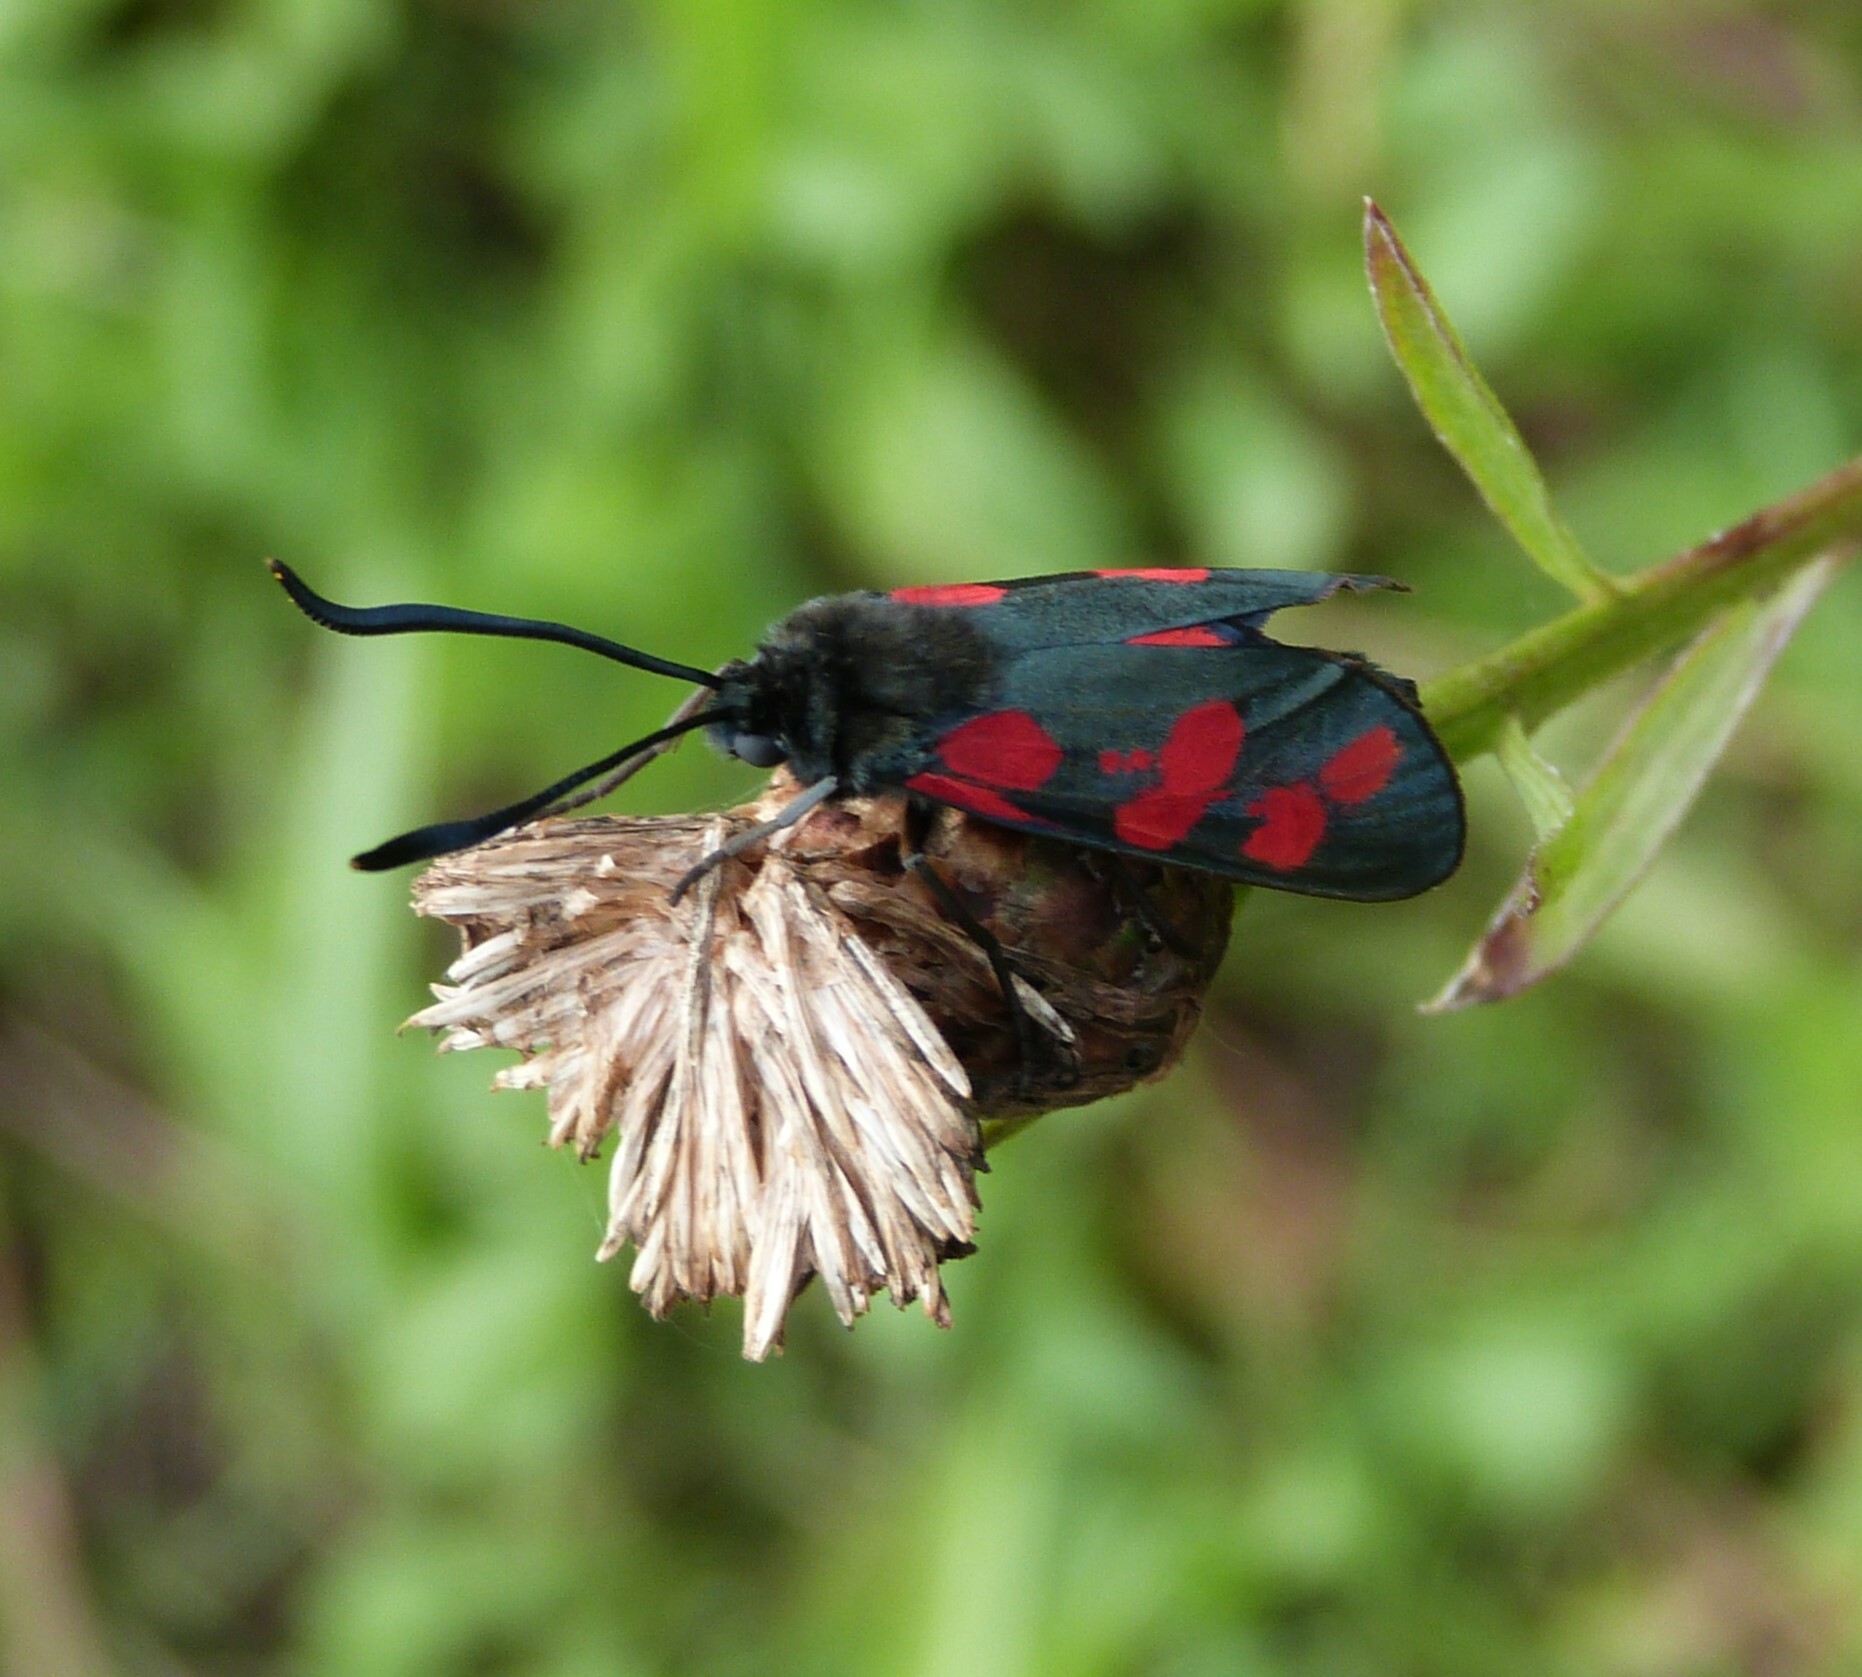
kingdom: Animalia
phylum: Arthropoda
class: Insecta
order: Lepidoptera
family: Zygaenidae
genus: Zygaena
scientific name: Zygaena filipendulae
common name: Six-spot burnet
